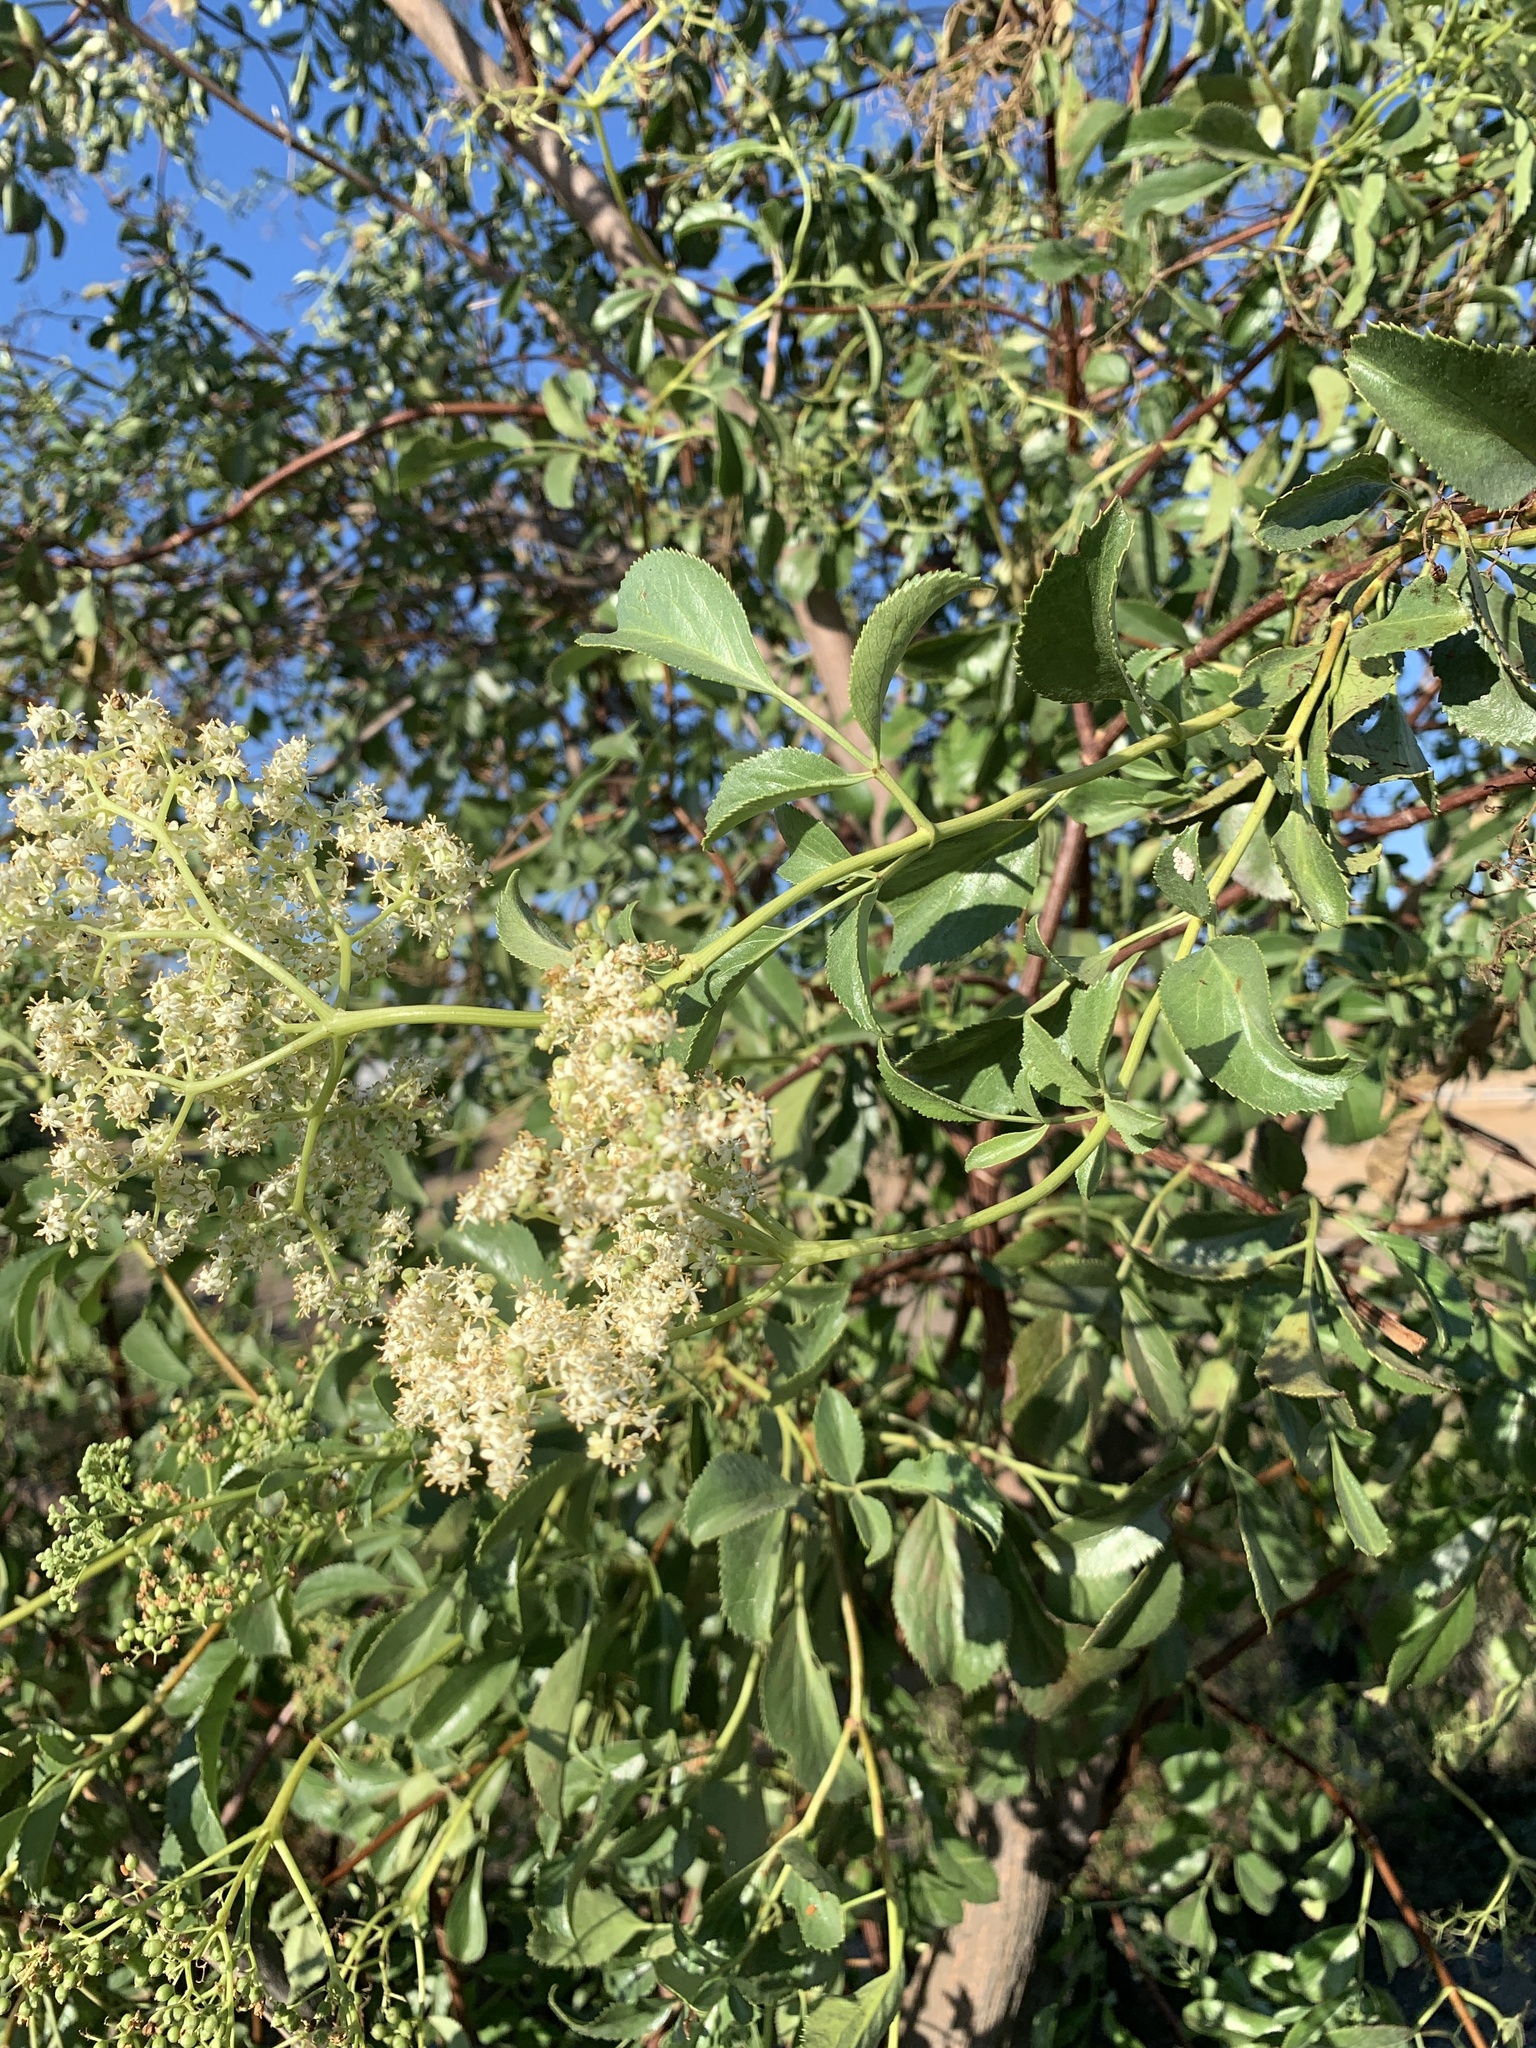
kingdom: Plantae
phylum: Tracheophyta
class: Magnoliopsida
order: Dipsacales
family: Viburnaceae
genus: Sambucus
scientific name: Sambucus cerulea
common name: Blue elder
